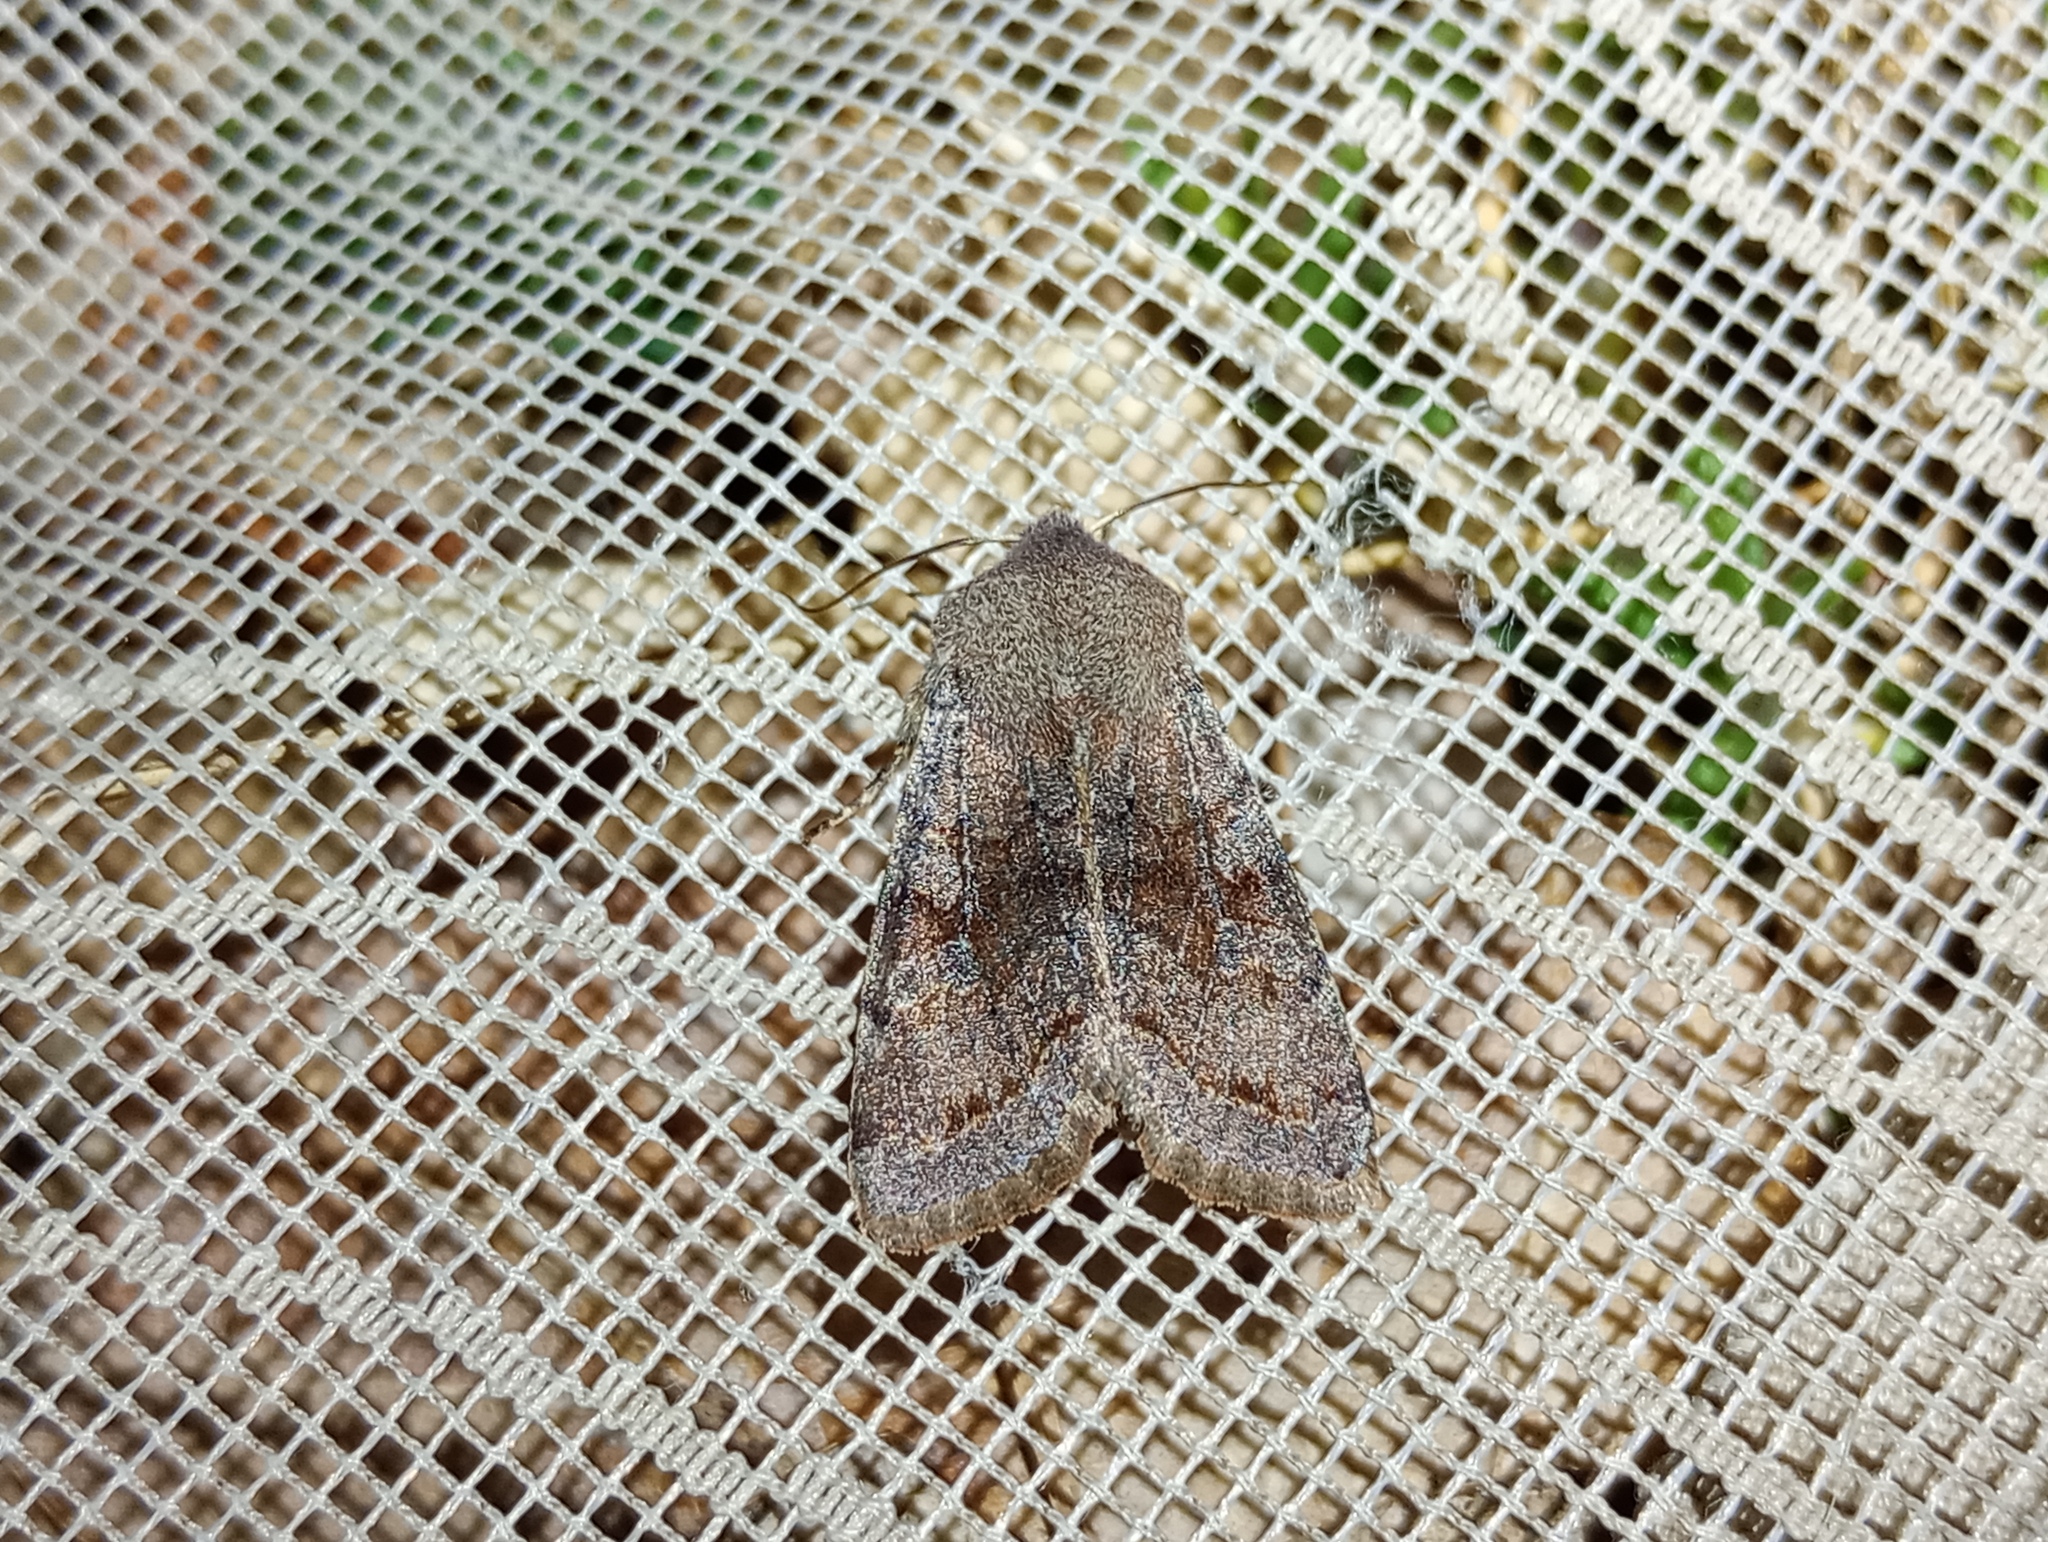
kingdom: Animalia
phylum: Arthropoda
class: Insecta
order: Lepidoptera
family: Noctuidae
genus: Orthosia
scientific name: Orthosia incerta
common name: Clouded drab
